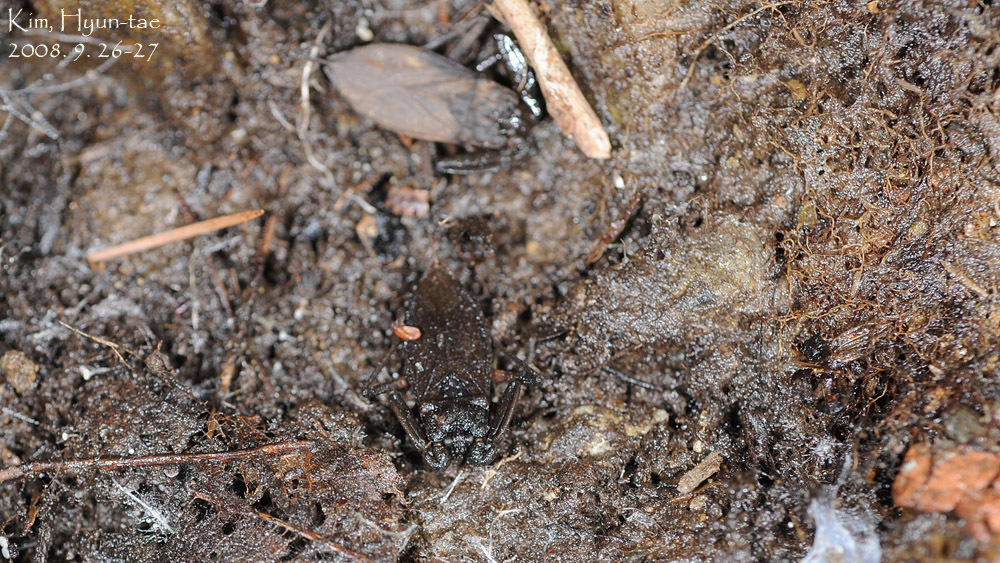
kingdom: Animalia
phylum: Arthropoda
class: Insecta
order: Hemiptera
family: Nepidae
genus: Nepa
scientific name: Nepa hoffmanni
